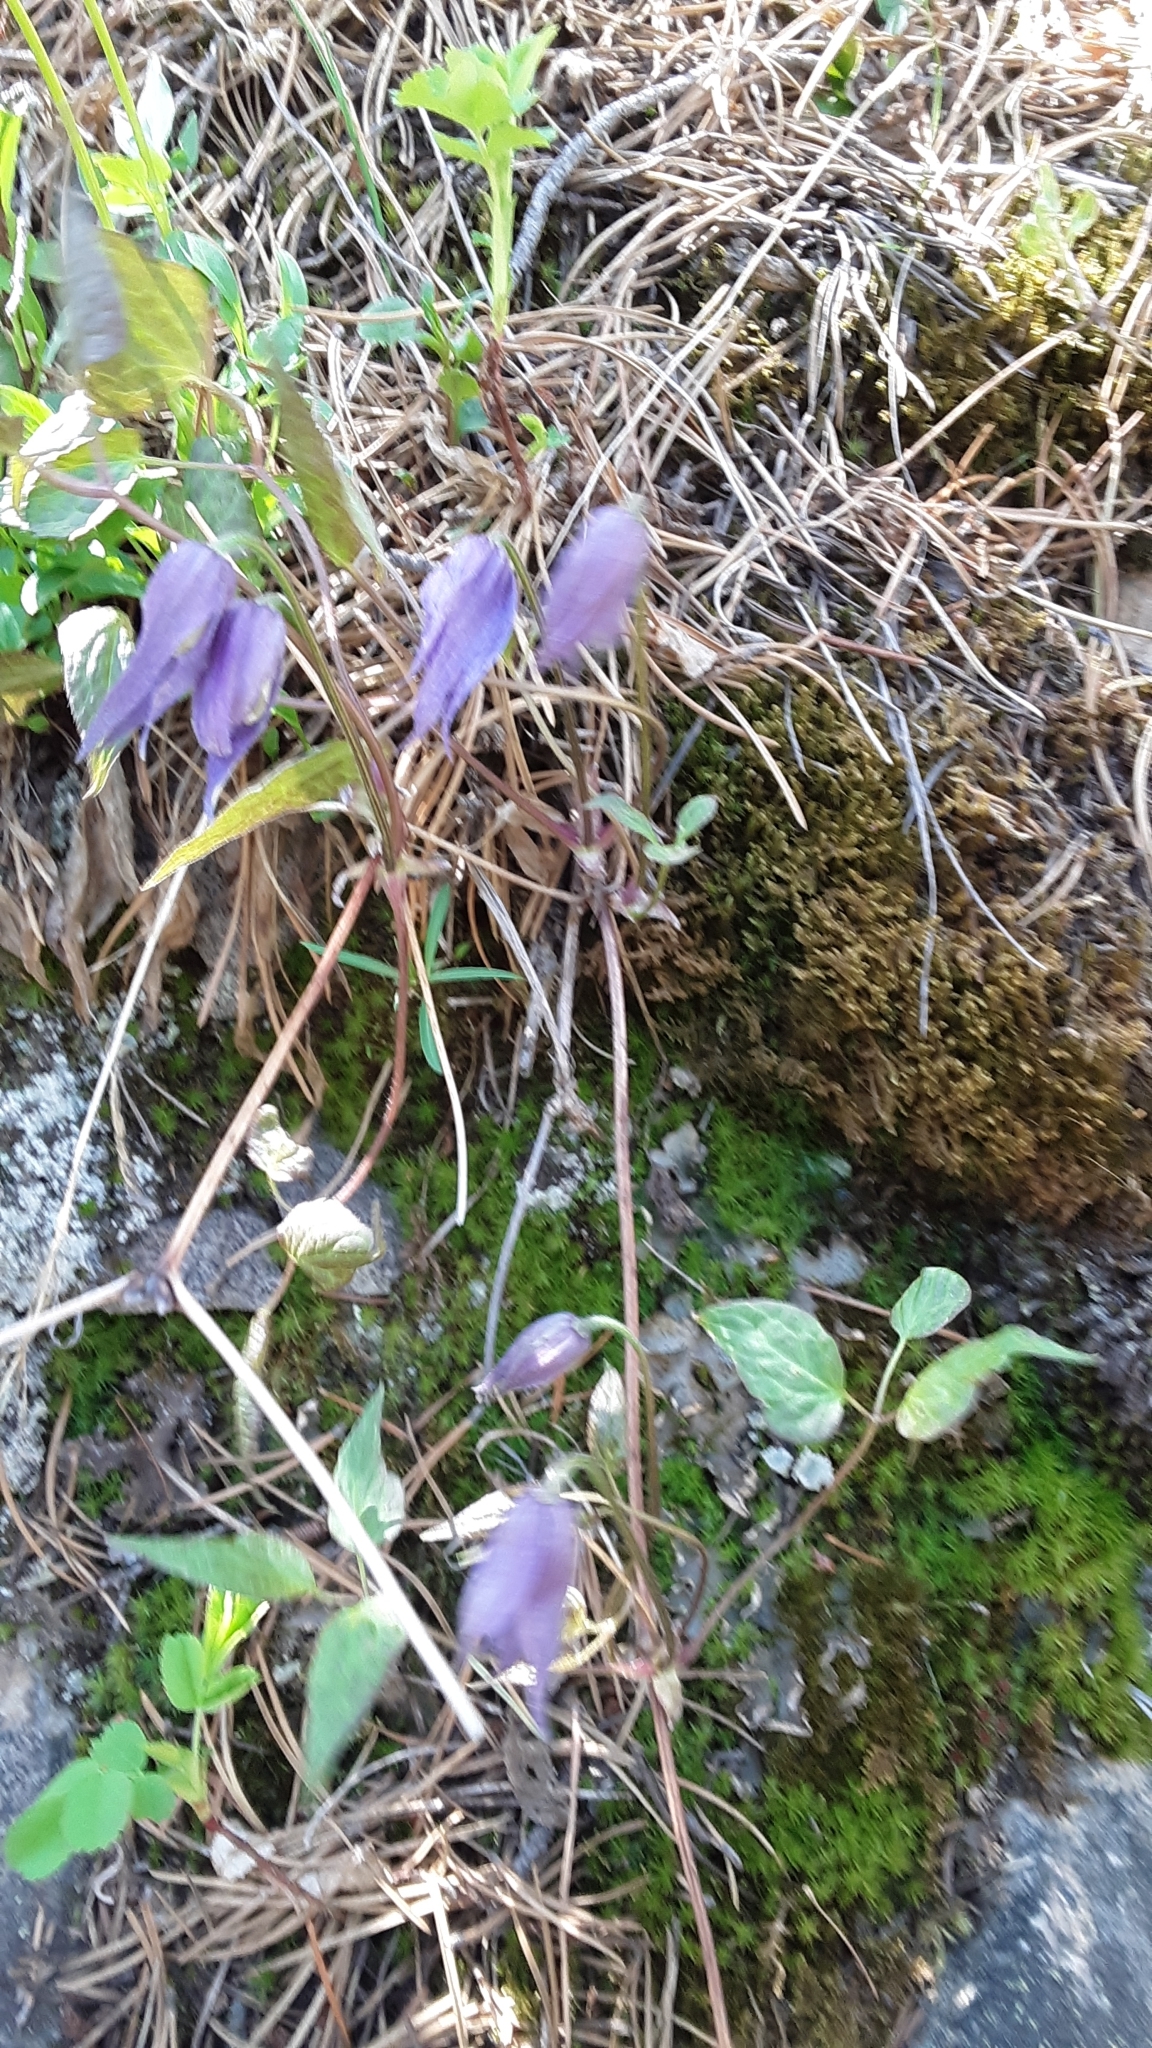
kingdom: Plantae
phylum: Tracheophyta
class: Magnoliopsida
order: Ranunculales
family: Ranunculaceae
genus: Clematis
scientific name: Clematis occidentalis
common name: Purple clematis
